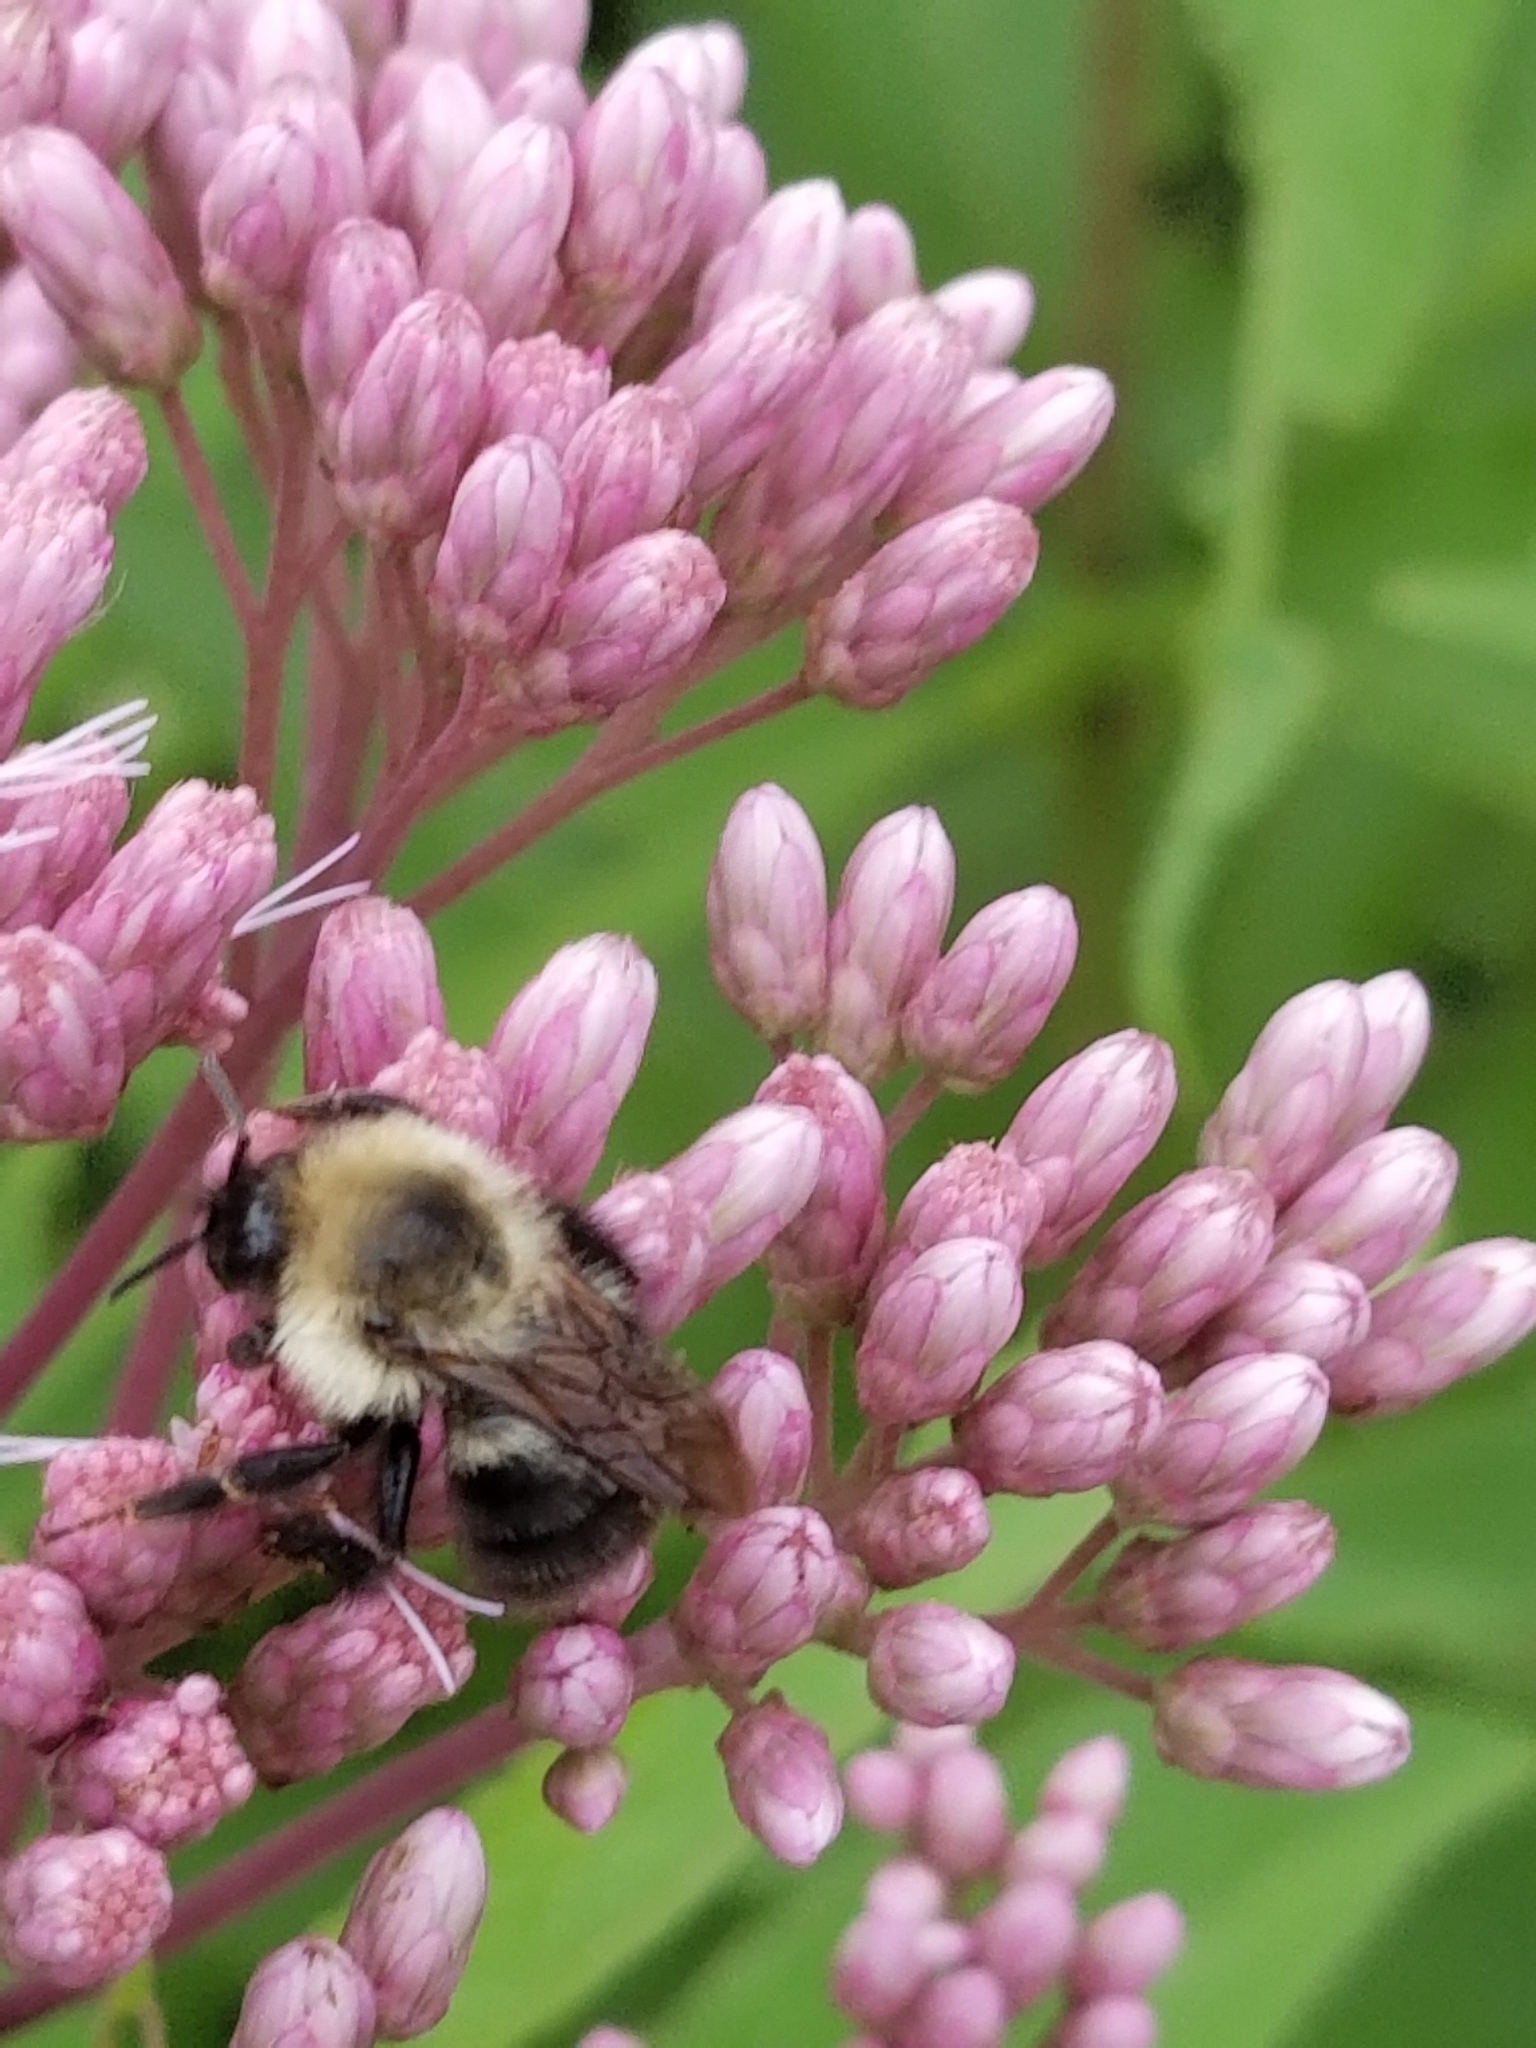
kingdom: Animalia
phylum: Arthropoda
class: Insecta
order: Hymenoptera
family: Apidae
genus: Bombus
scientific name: Bombus bimaculatus
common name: Two-spotted bumble bee
